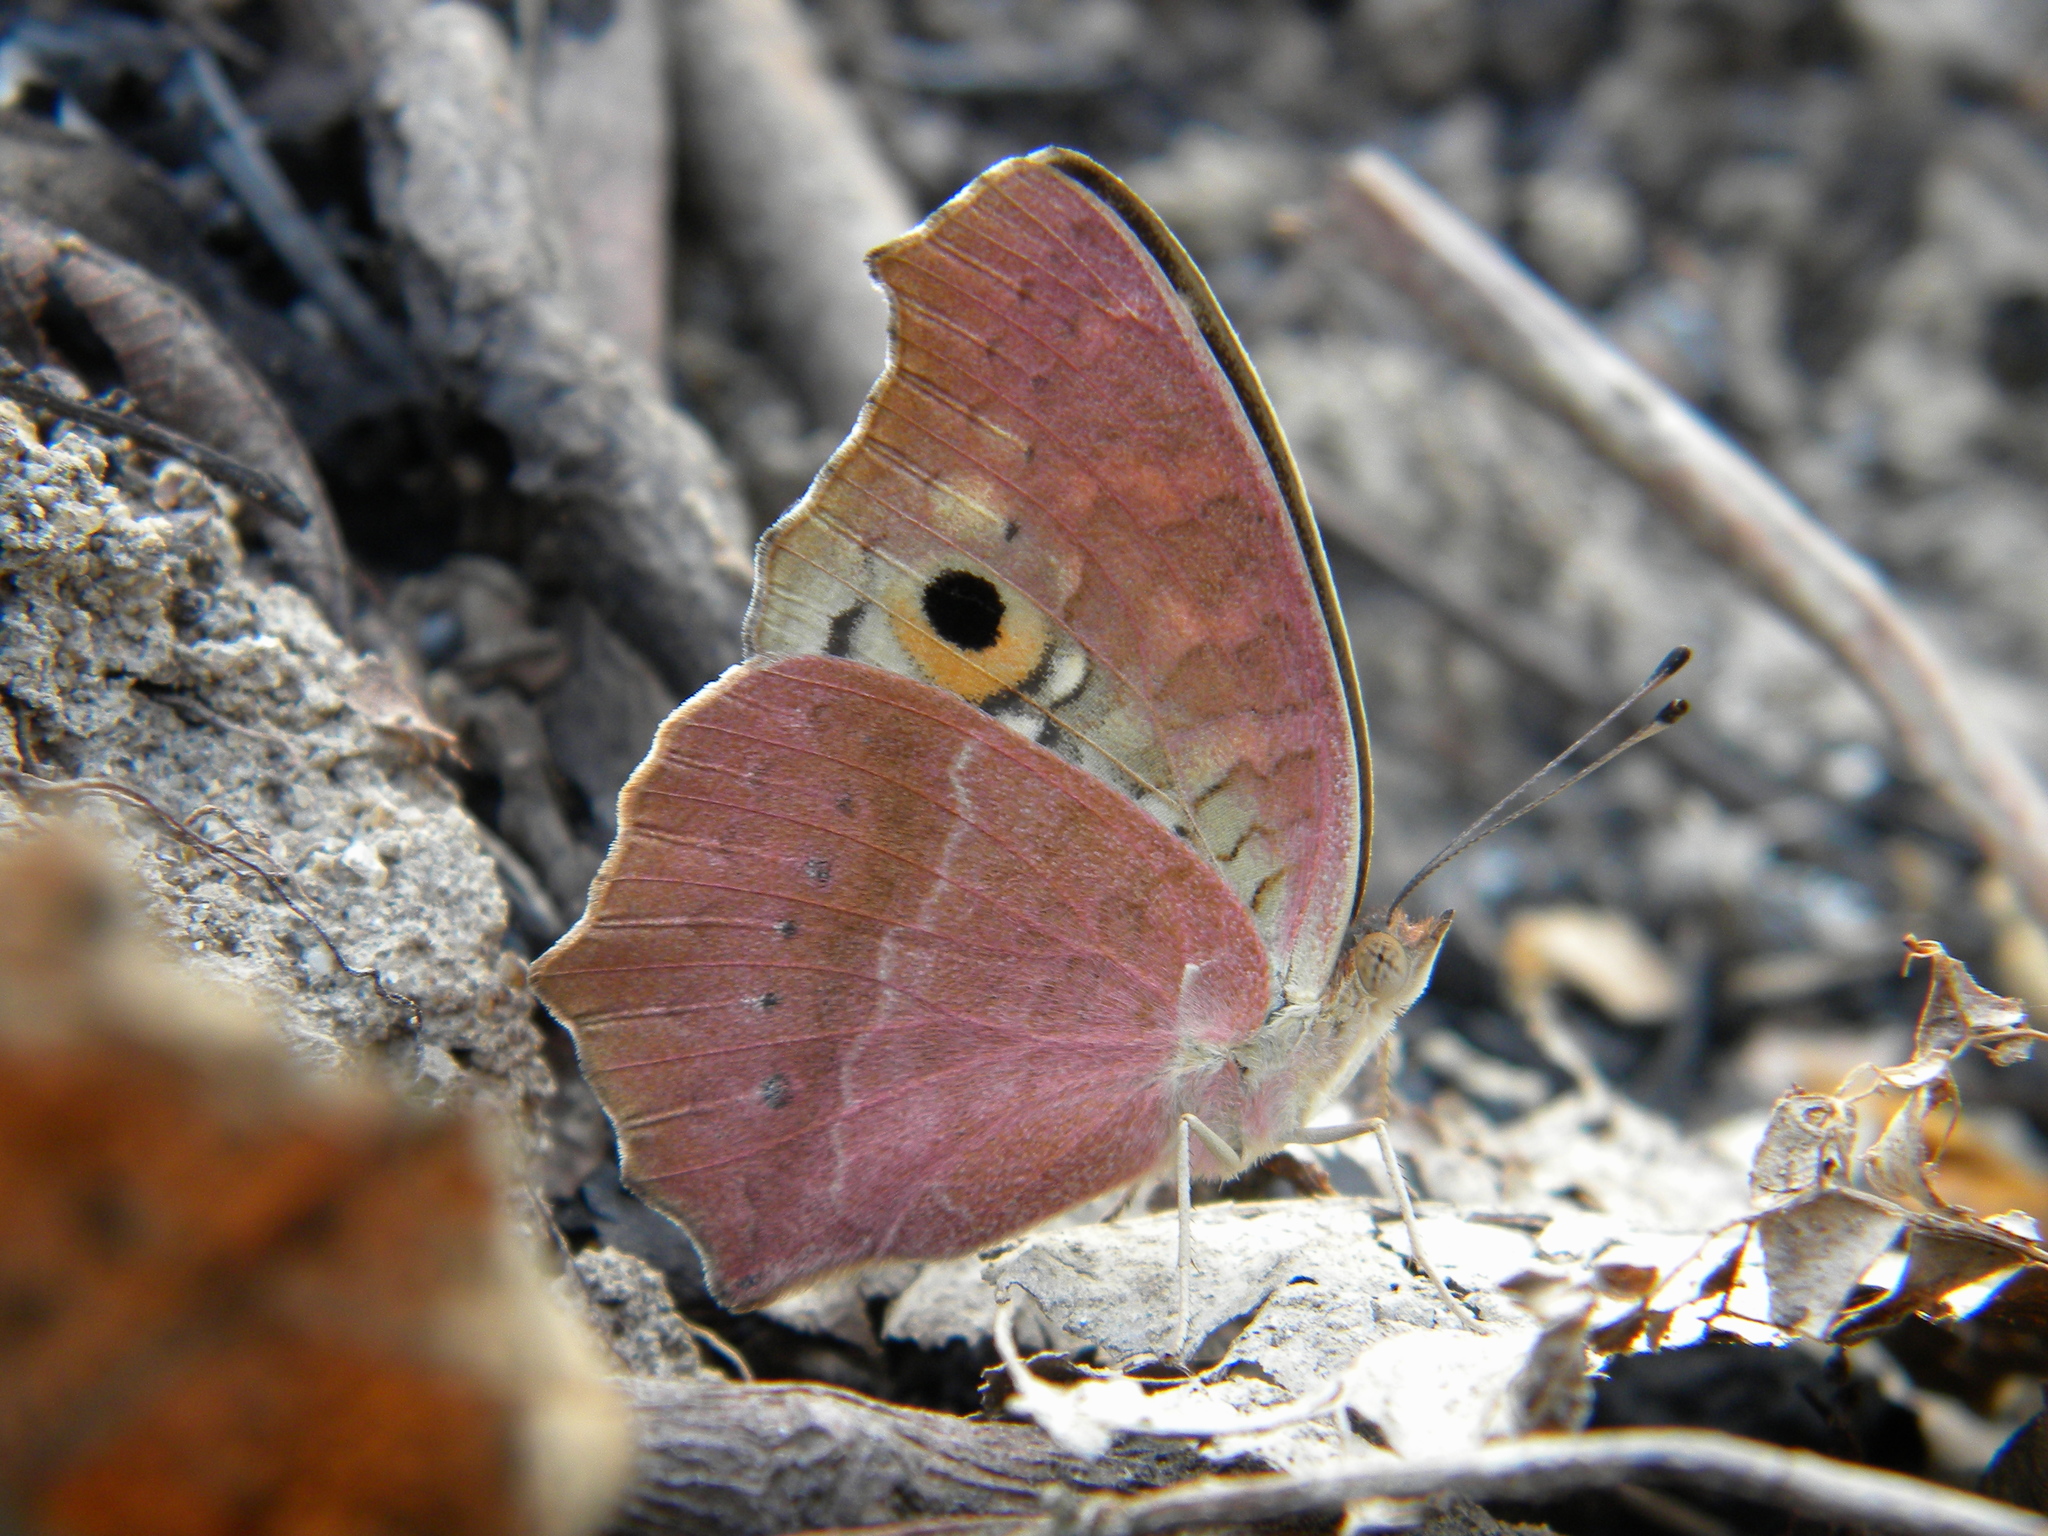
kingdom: Animalia
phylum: Arthropoda
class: Insecta
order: Lepidoptera
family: Nymphalidae
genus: Junonia
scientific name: Junonia lemonias
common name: Lemon pansy
